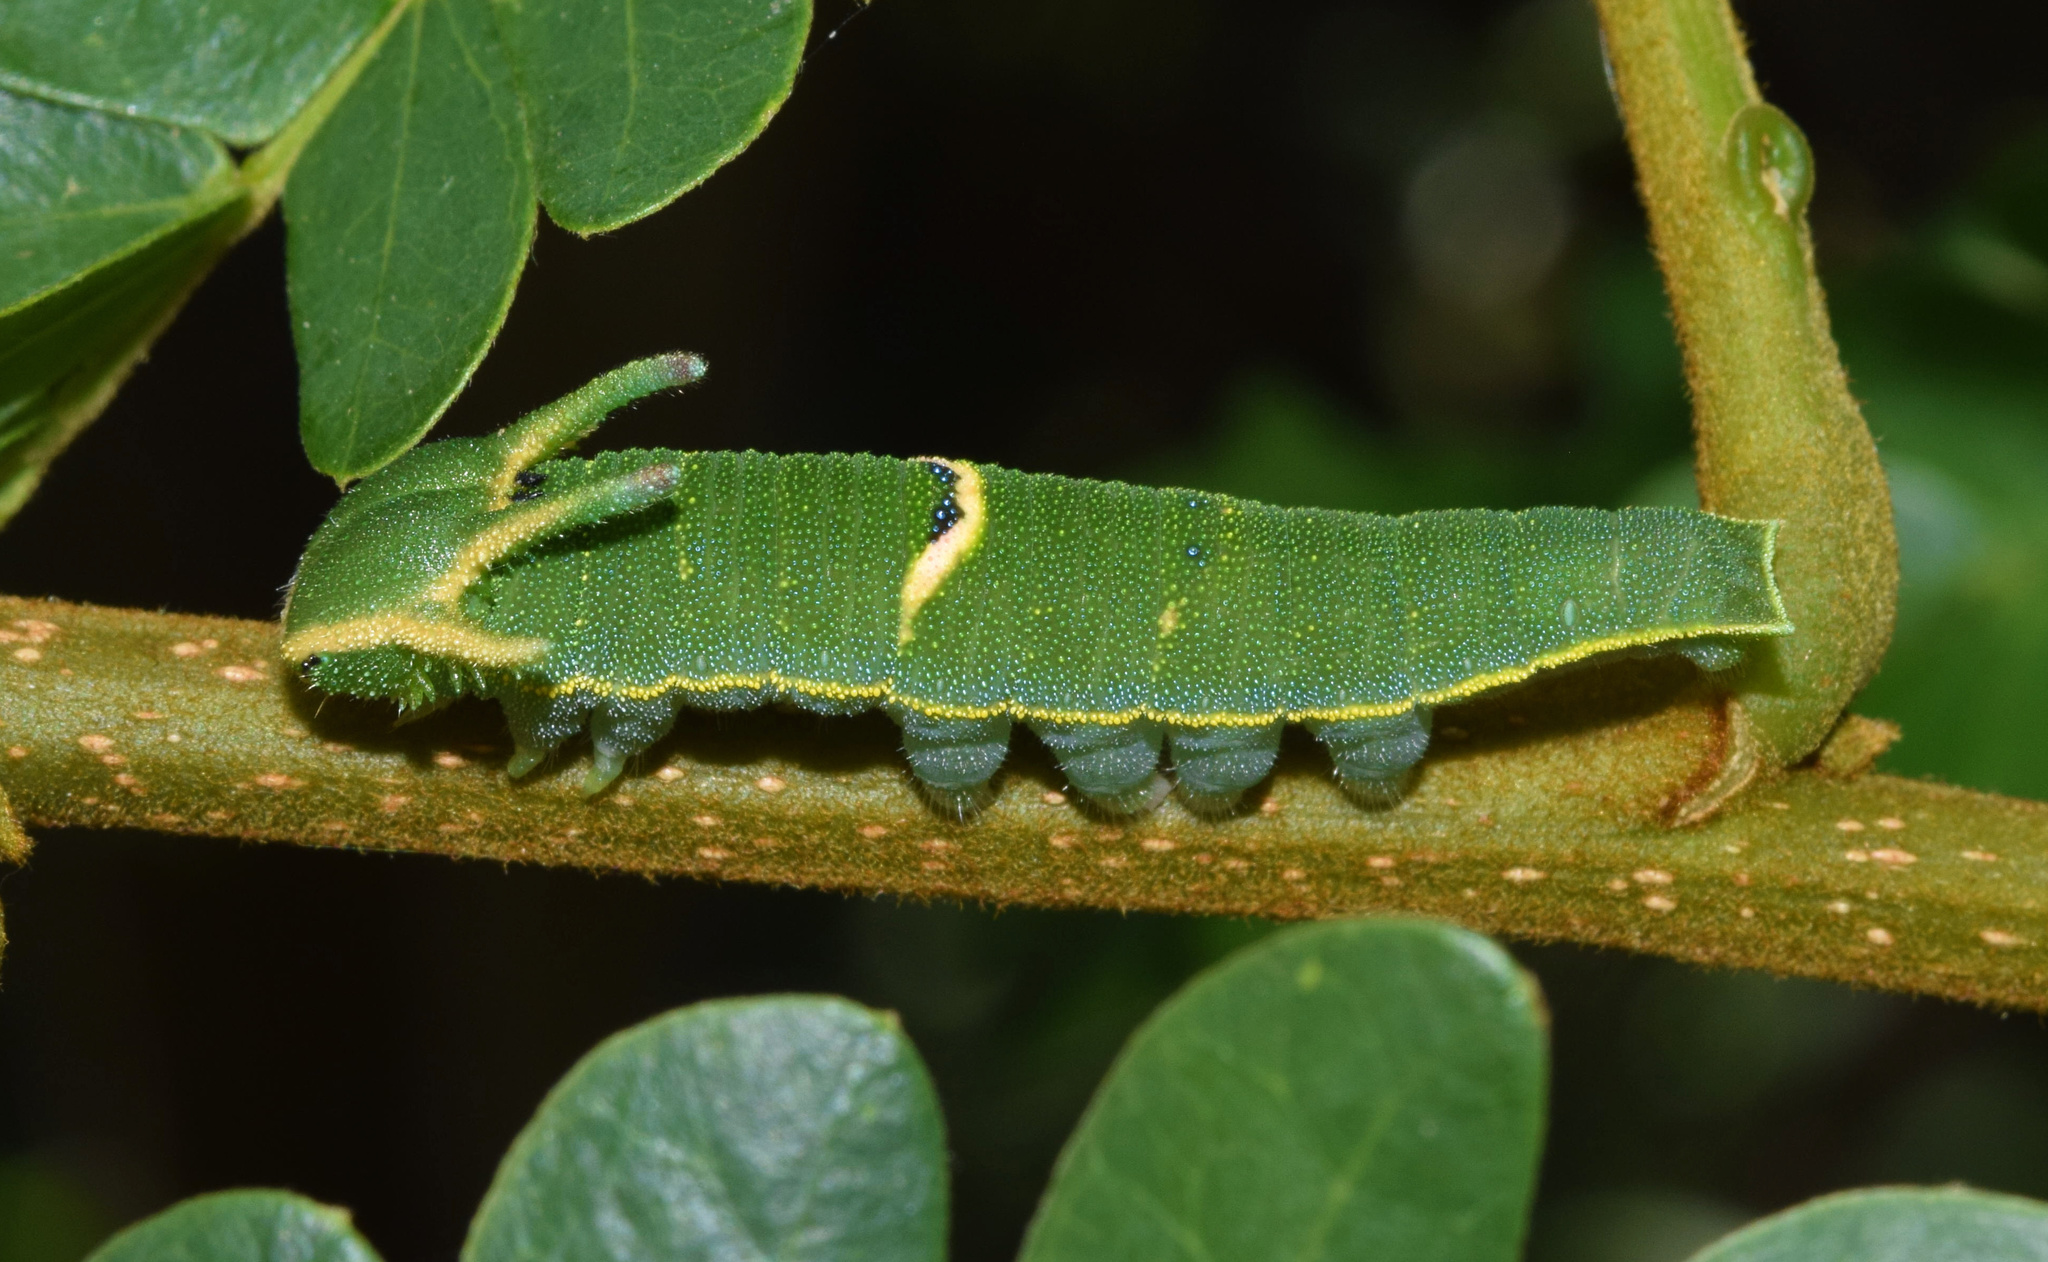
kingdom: Animalia
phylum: Arthropoda
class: Insecta
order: Lepidoptera
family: Nymphalidae
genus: Charaxes
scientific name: Charaxes ethalion
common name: Satyr charaxes
